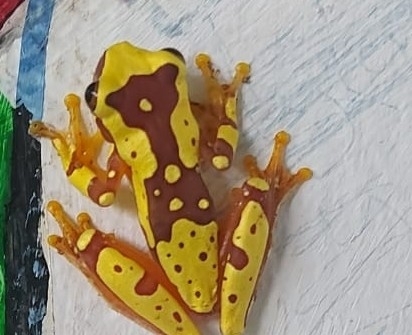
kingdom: Animalia
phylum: Chordata
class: Amphibia
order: Anura
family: Hylidae
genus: Dendropsophus
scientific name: Dendropsophus ebraccatus
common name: Hourglass treefrog
